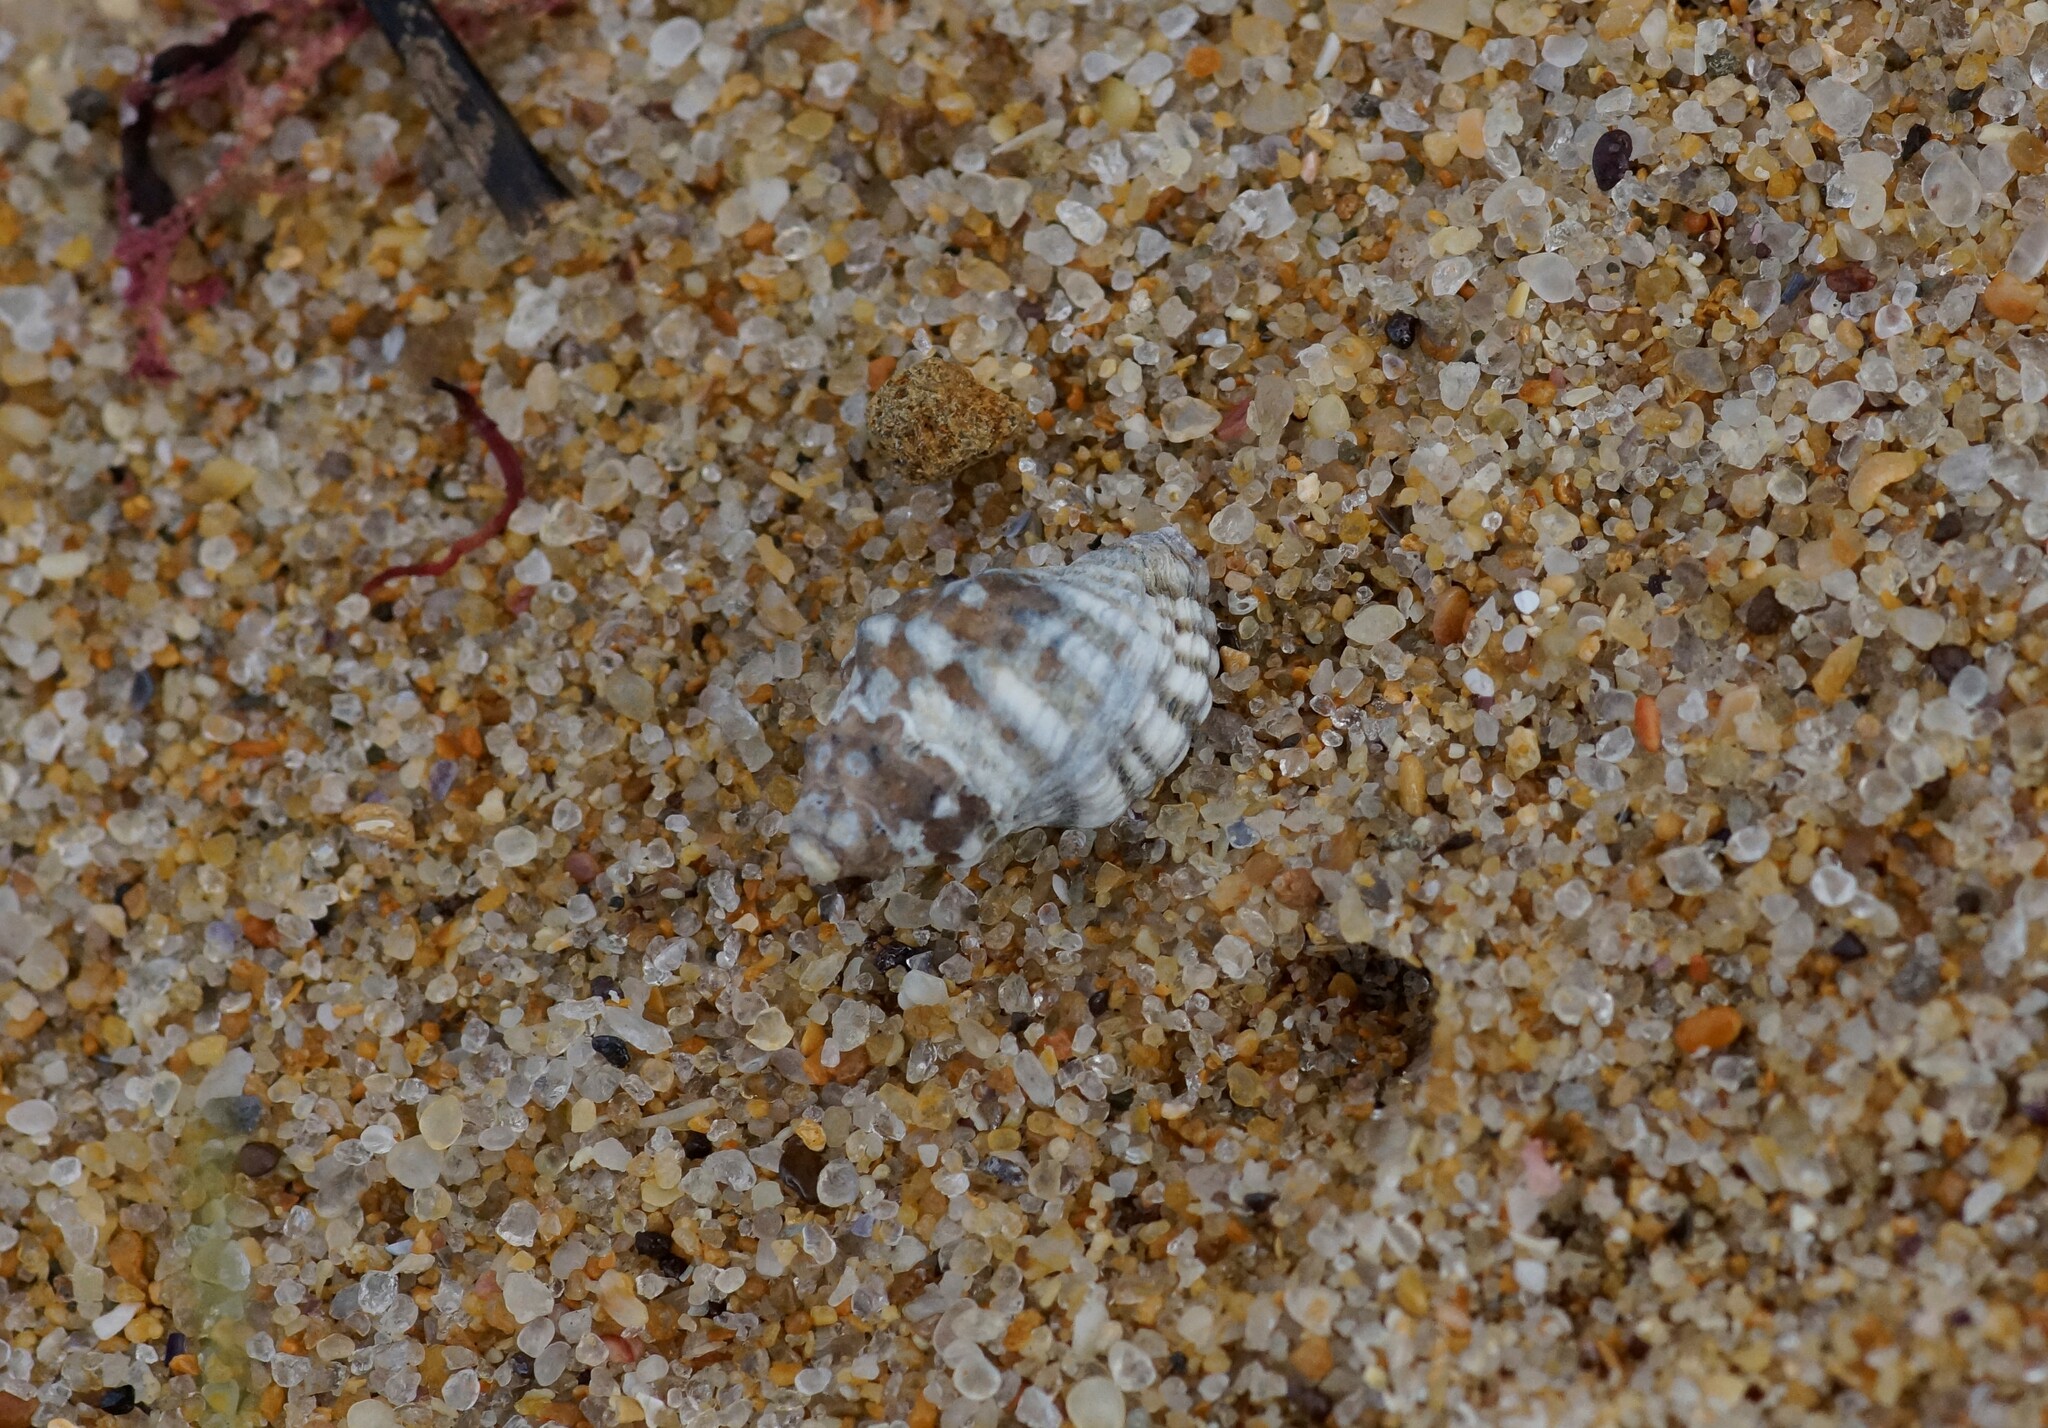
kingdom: Animalia
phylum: Mollusca
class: Gastropoda
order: Neogastropoda
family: Muricidae
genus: Bedeva
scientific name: Bedeva vinosa
